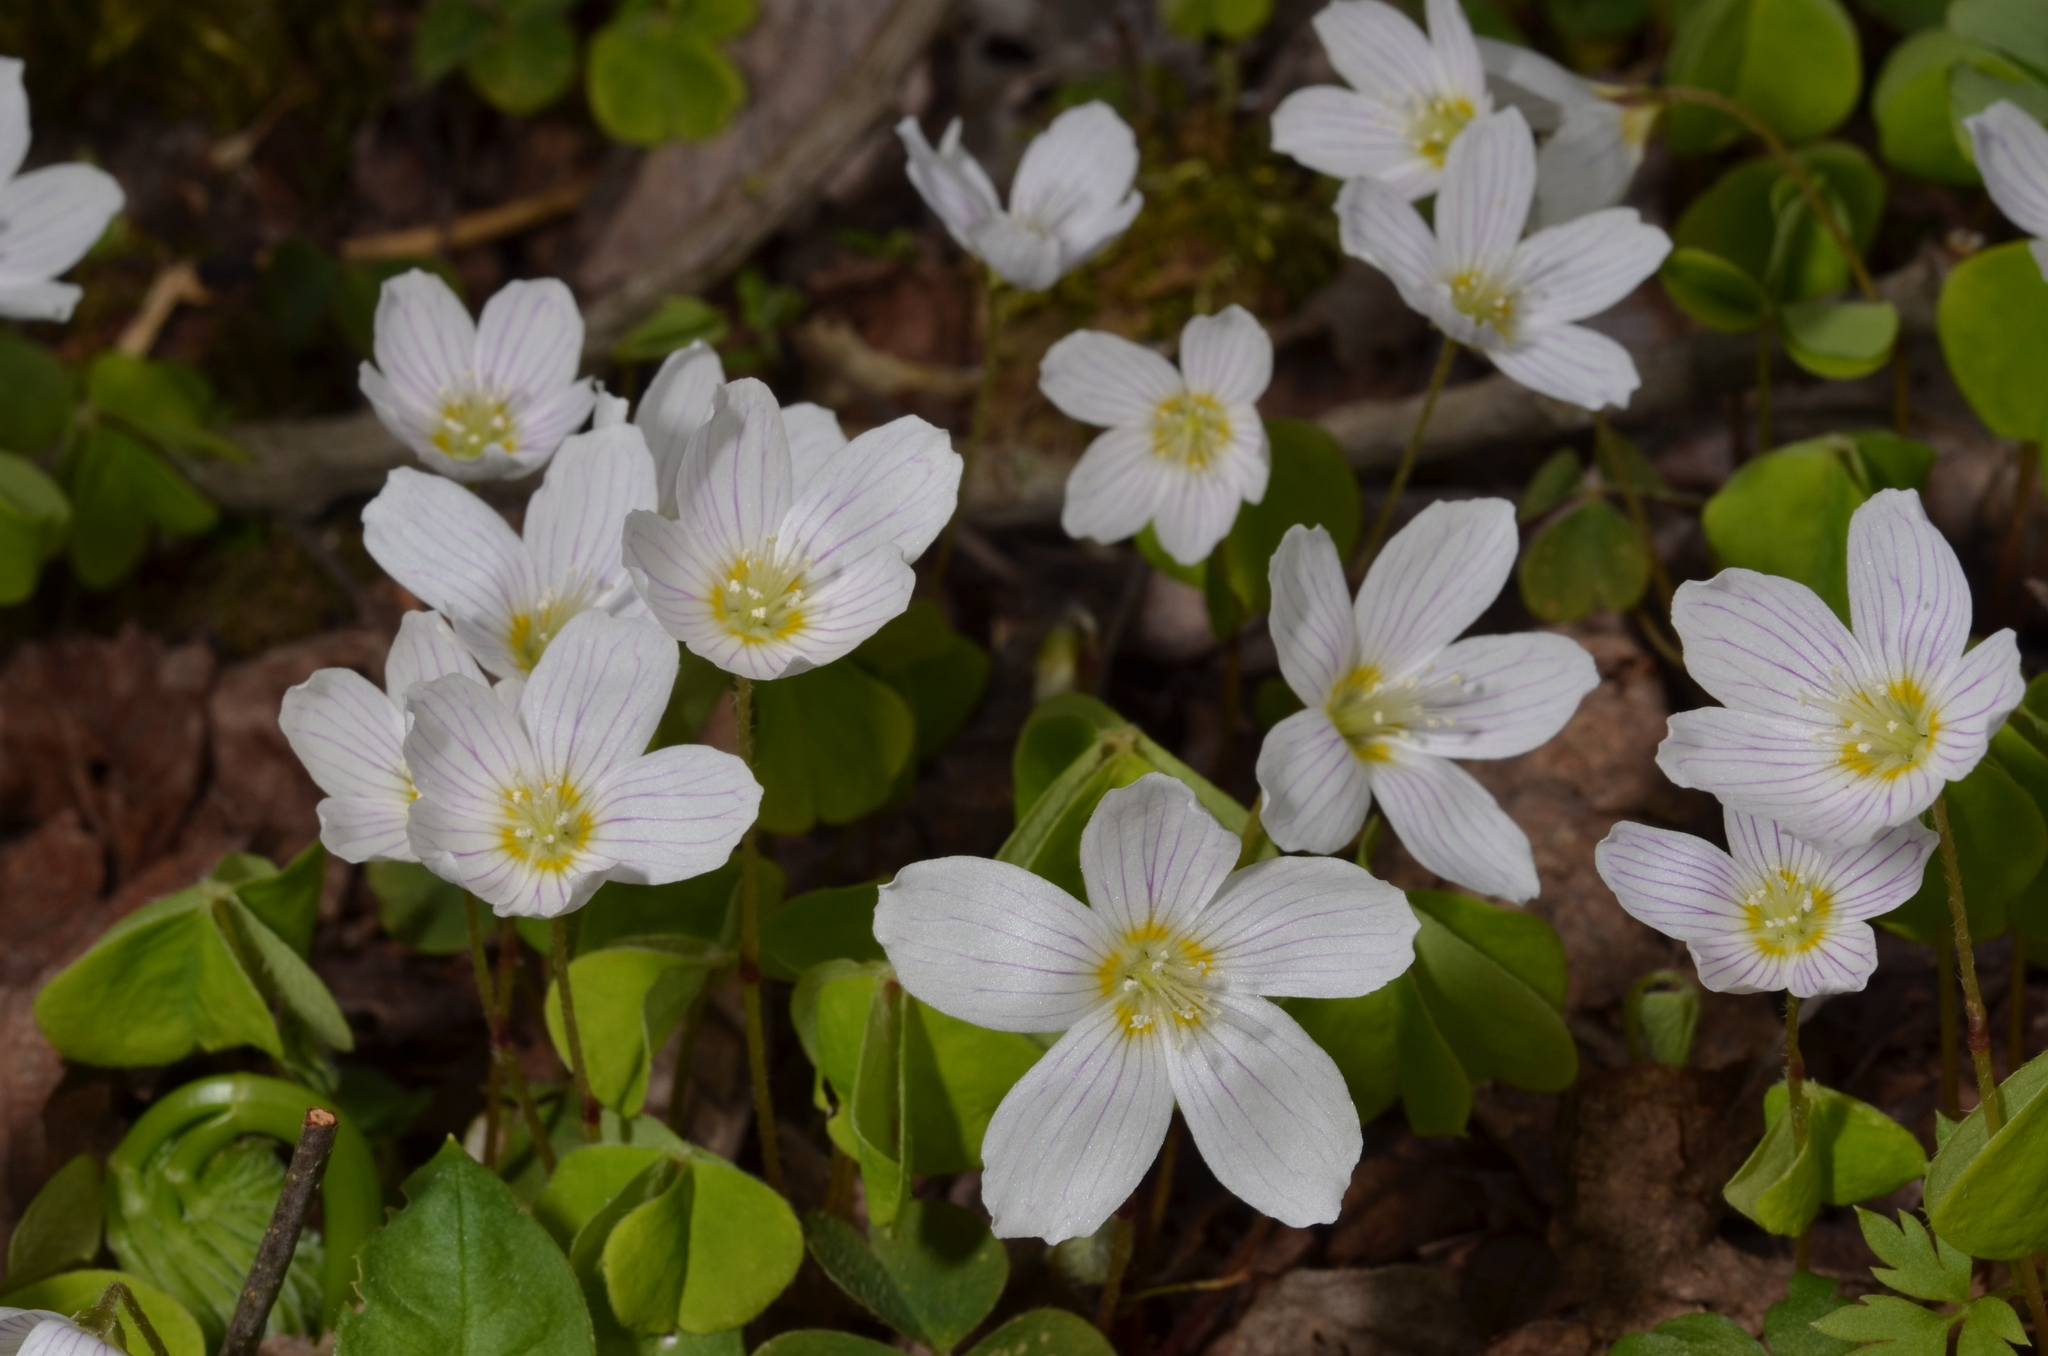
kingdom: Plantae
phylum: Tracheophyta
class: Magnoliopsida
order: Oxalidales
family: Oxalidaceae
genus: Oxalis
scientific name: Oxalis acetosella
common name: Wood-sorrel
